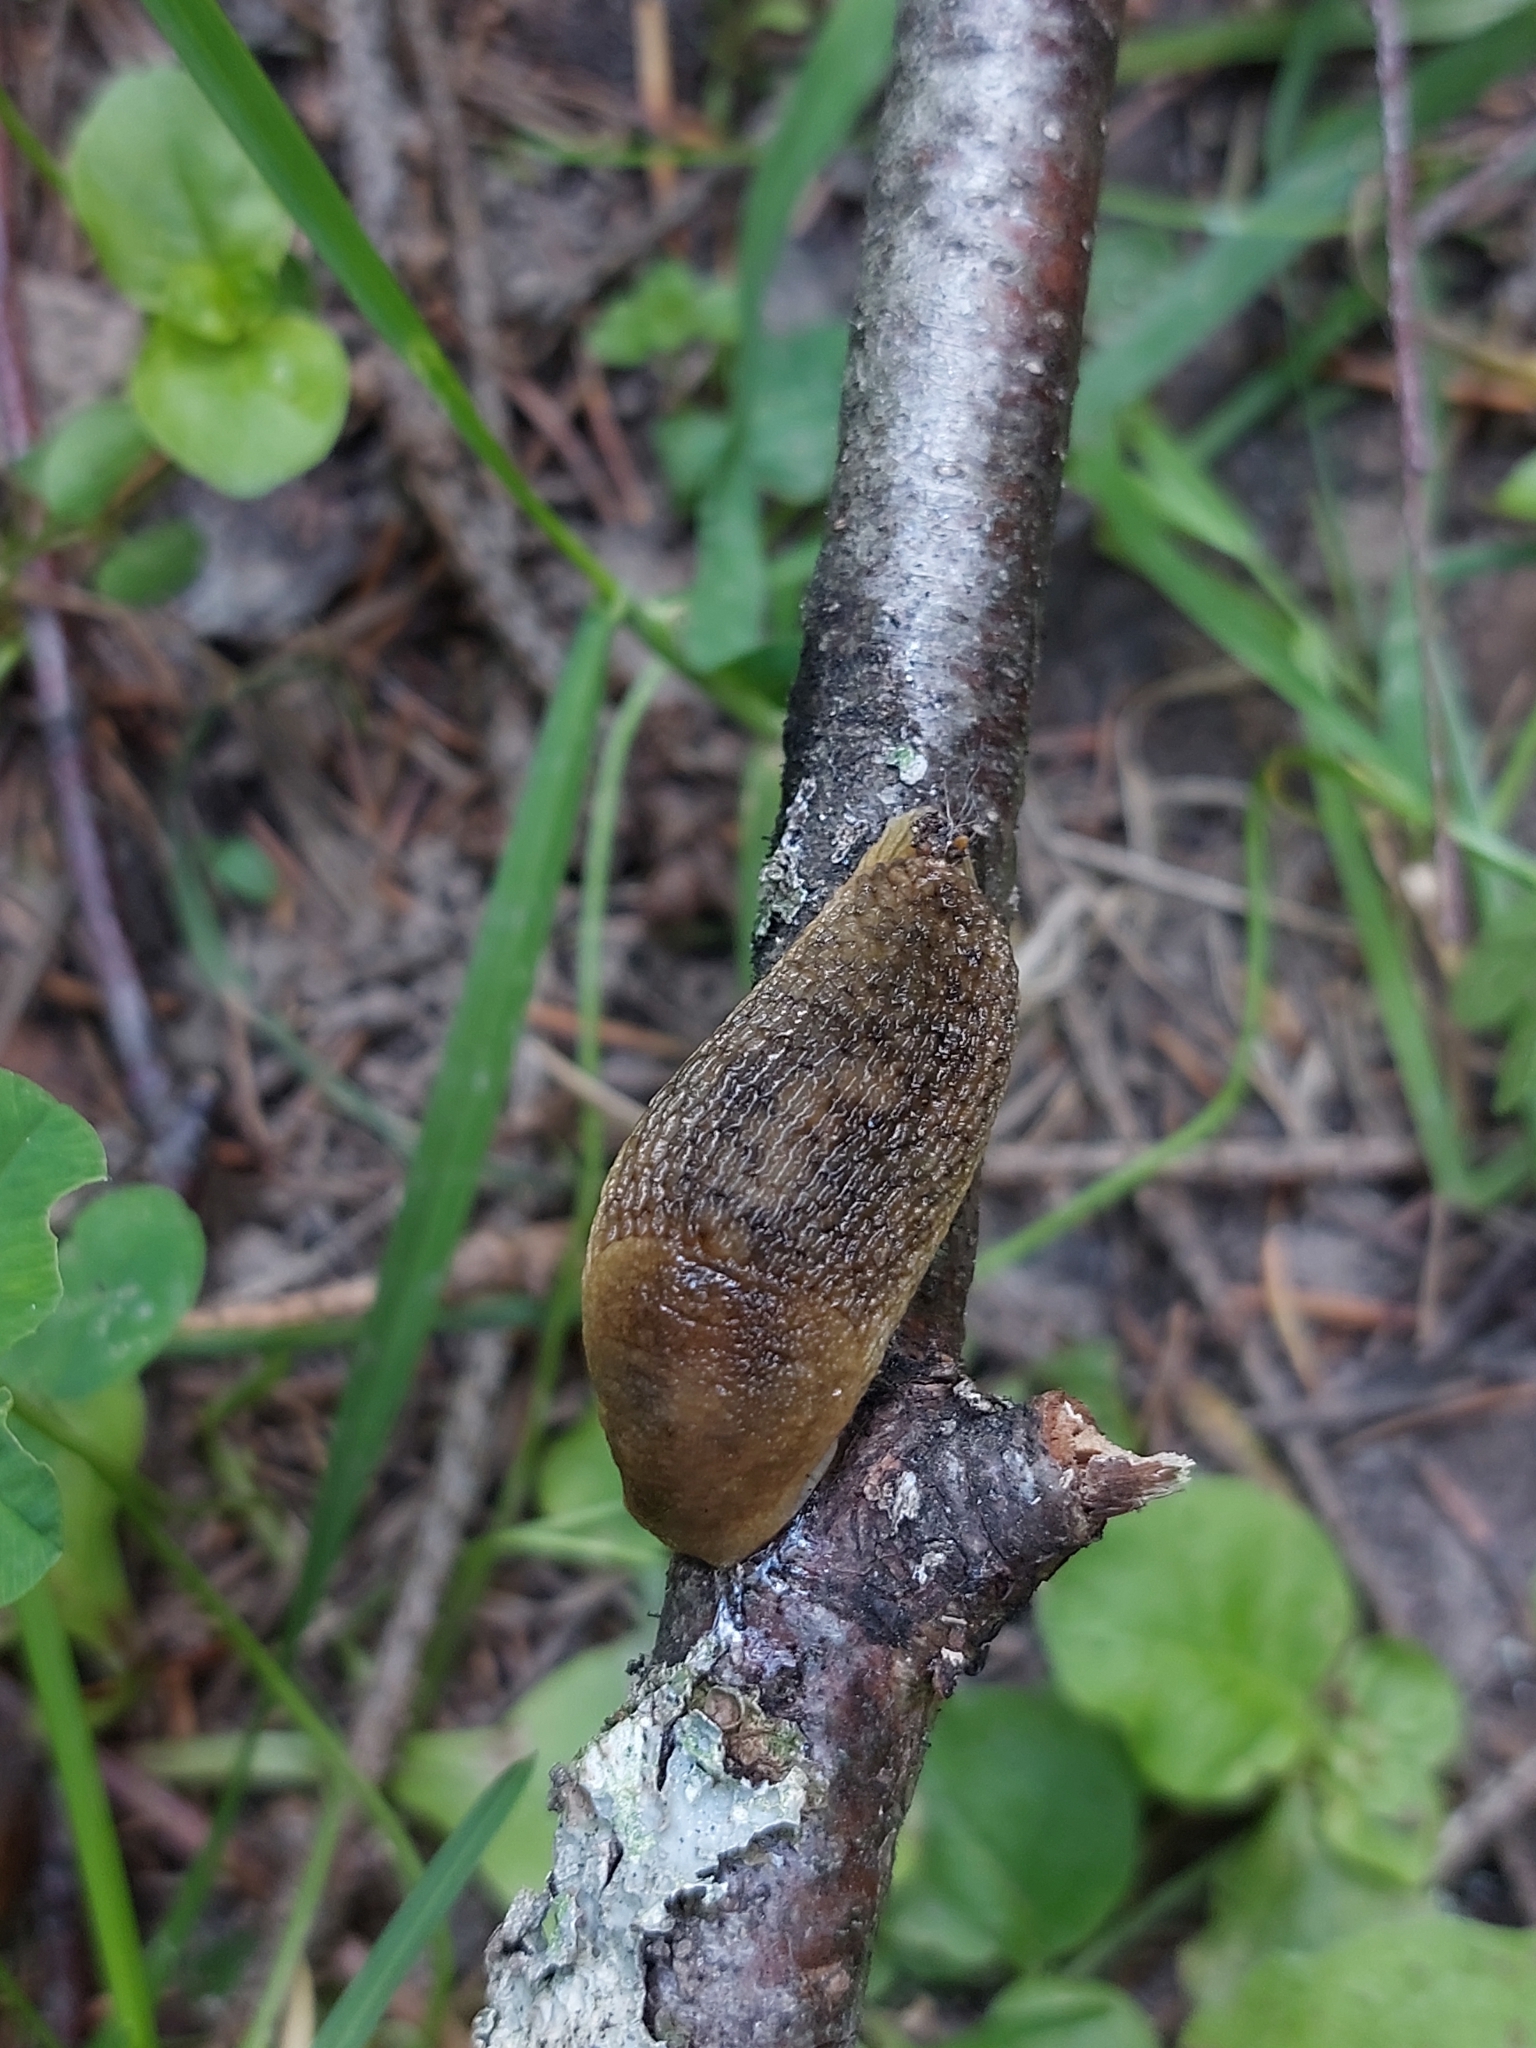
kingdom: Animalia
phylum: Mollusca
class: Gastropoda
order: Stylommatophora
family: Arionidae
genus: Arion
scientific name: Arion fuscus
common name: Northern dusky slug
